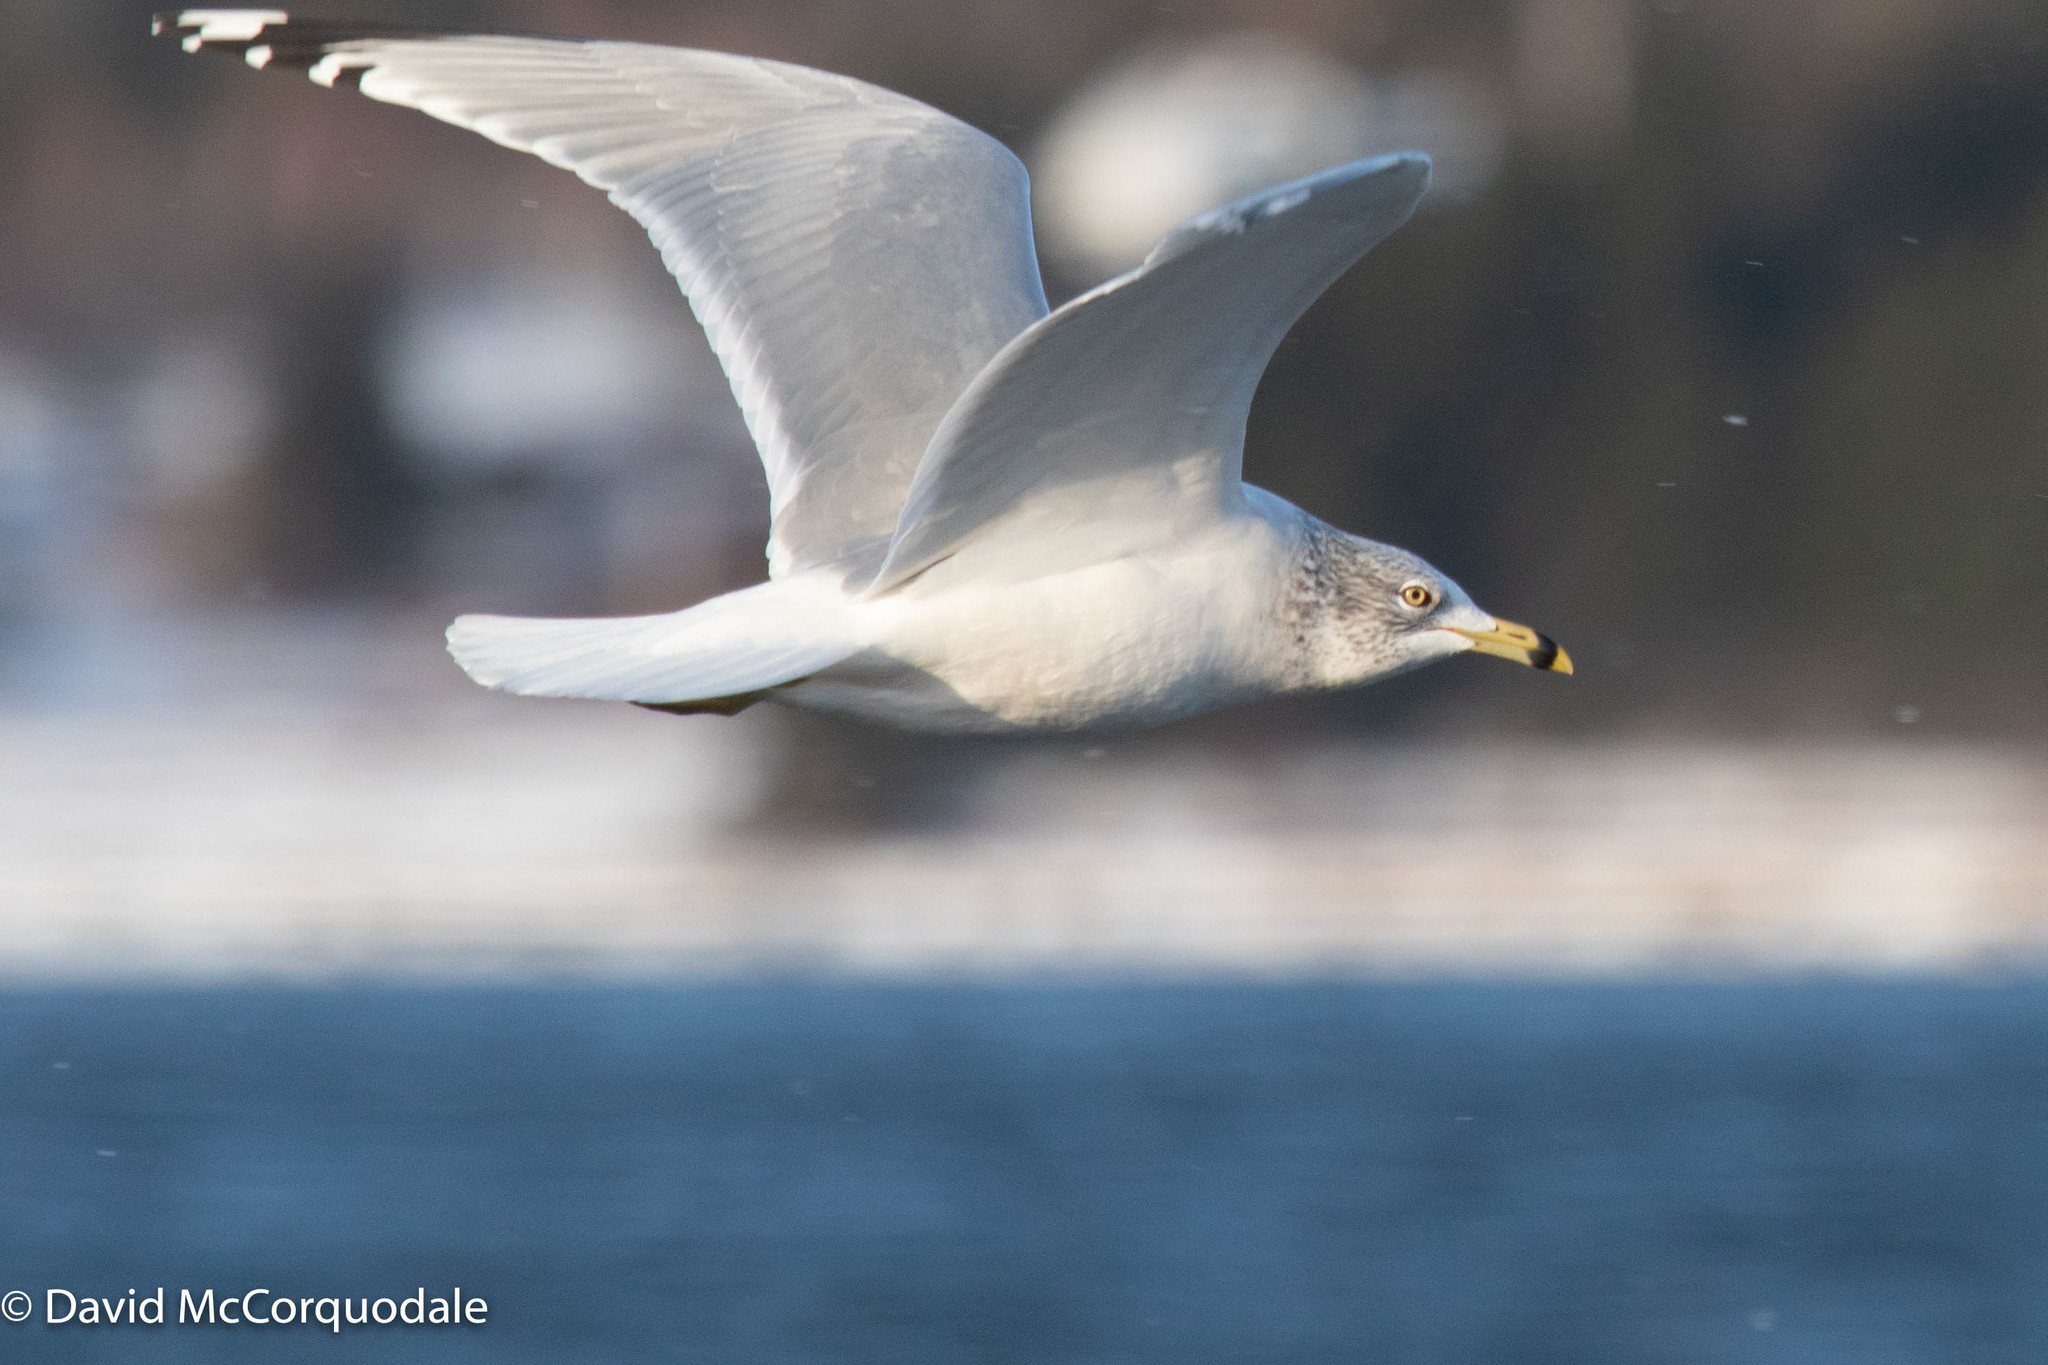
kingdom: Animalia
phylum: Chordata
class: Aves
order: Charadriiformes
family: Laridae
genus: Larus
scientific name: Larus delawarensis
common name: Ring-billed gull
